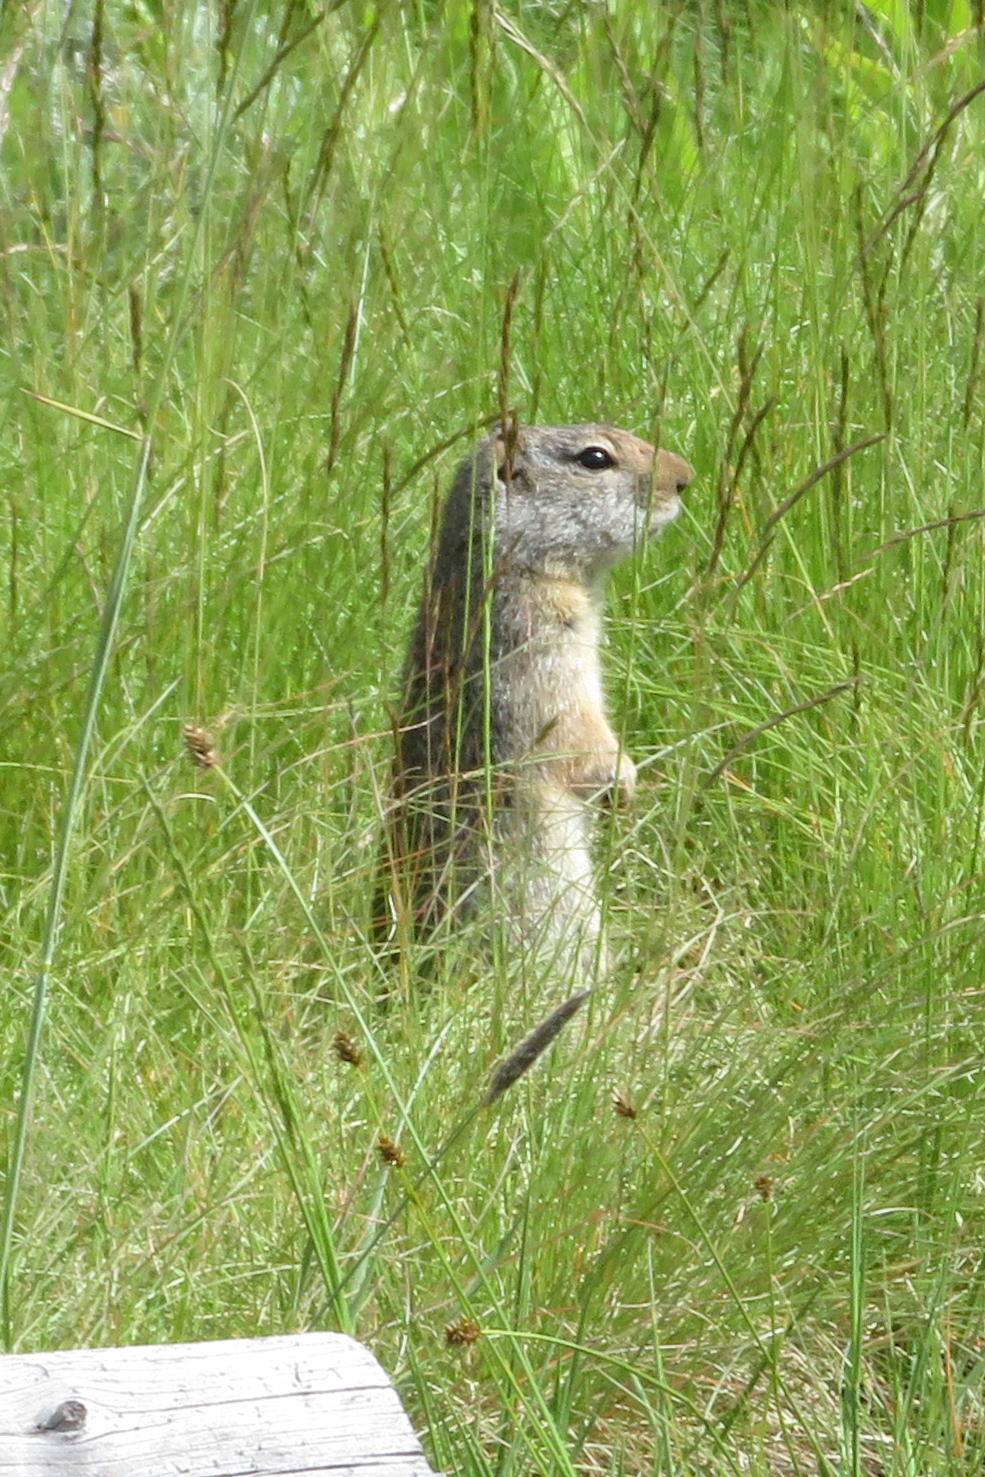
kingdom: Animalia
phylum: Chordata
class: Mammalia
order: Rodentia
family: Sciuridae
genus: Urocitellus
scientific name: Urocitellus armatus
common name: Uinta ground squirrel
